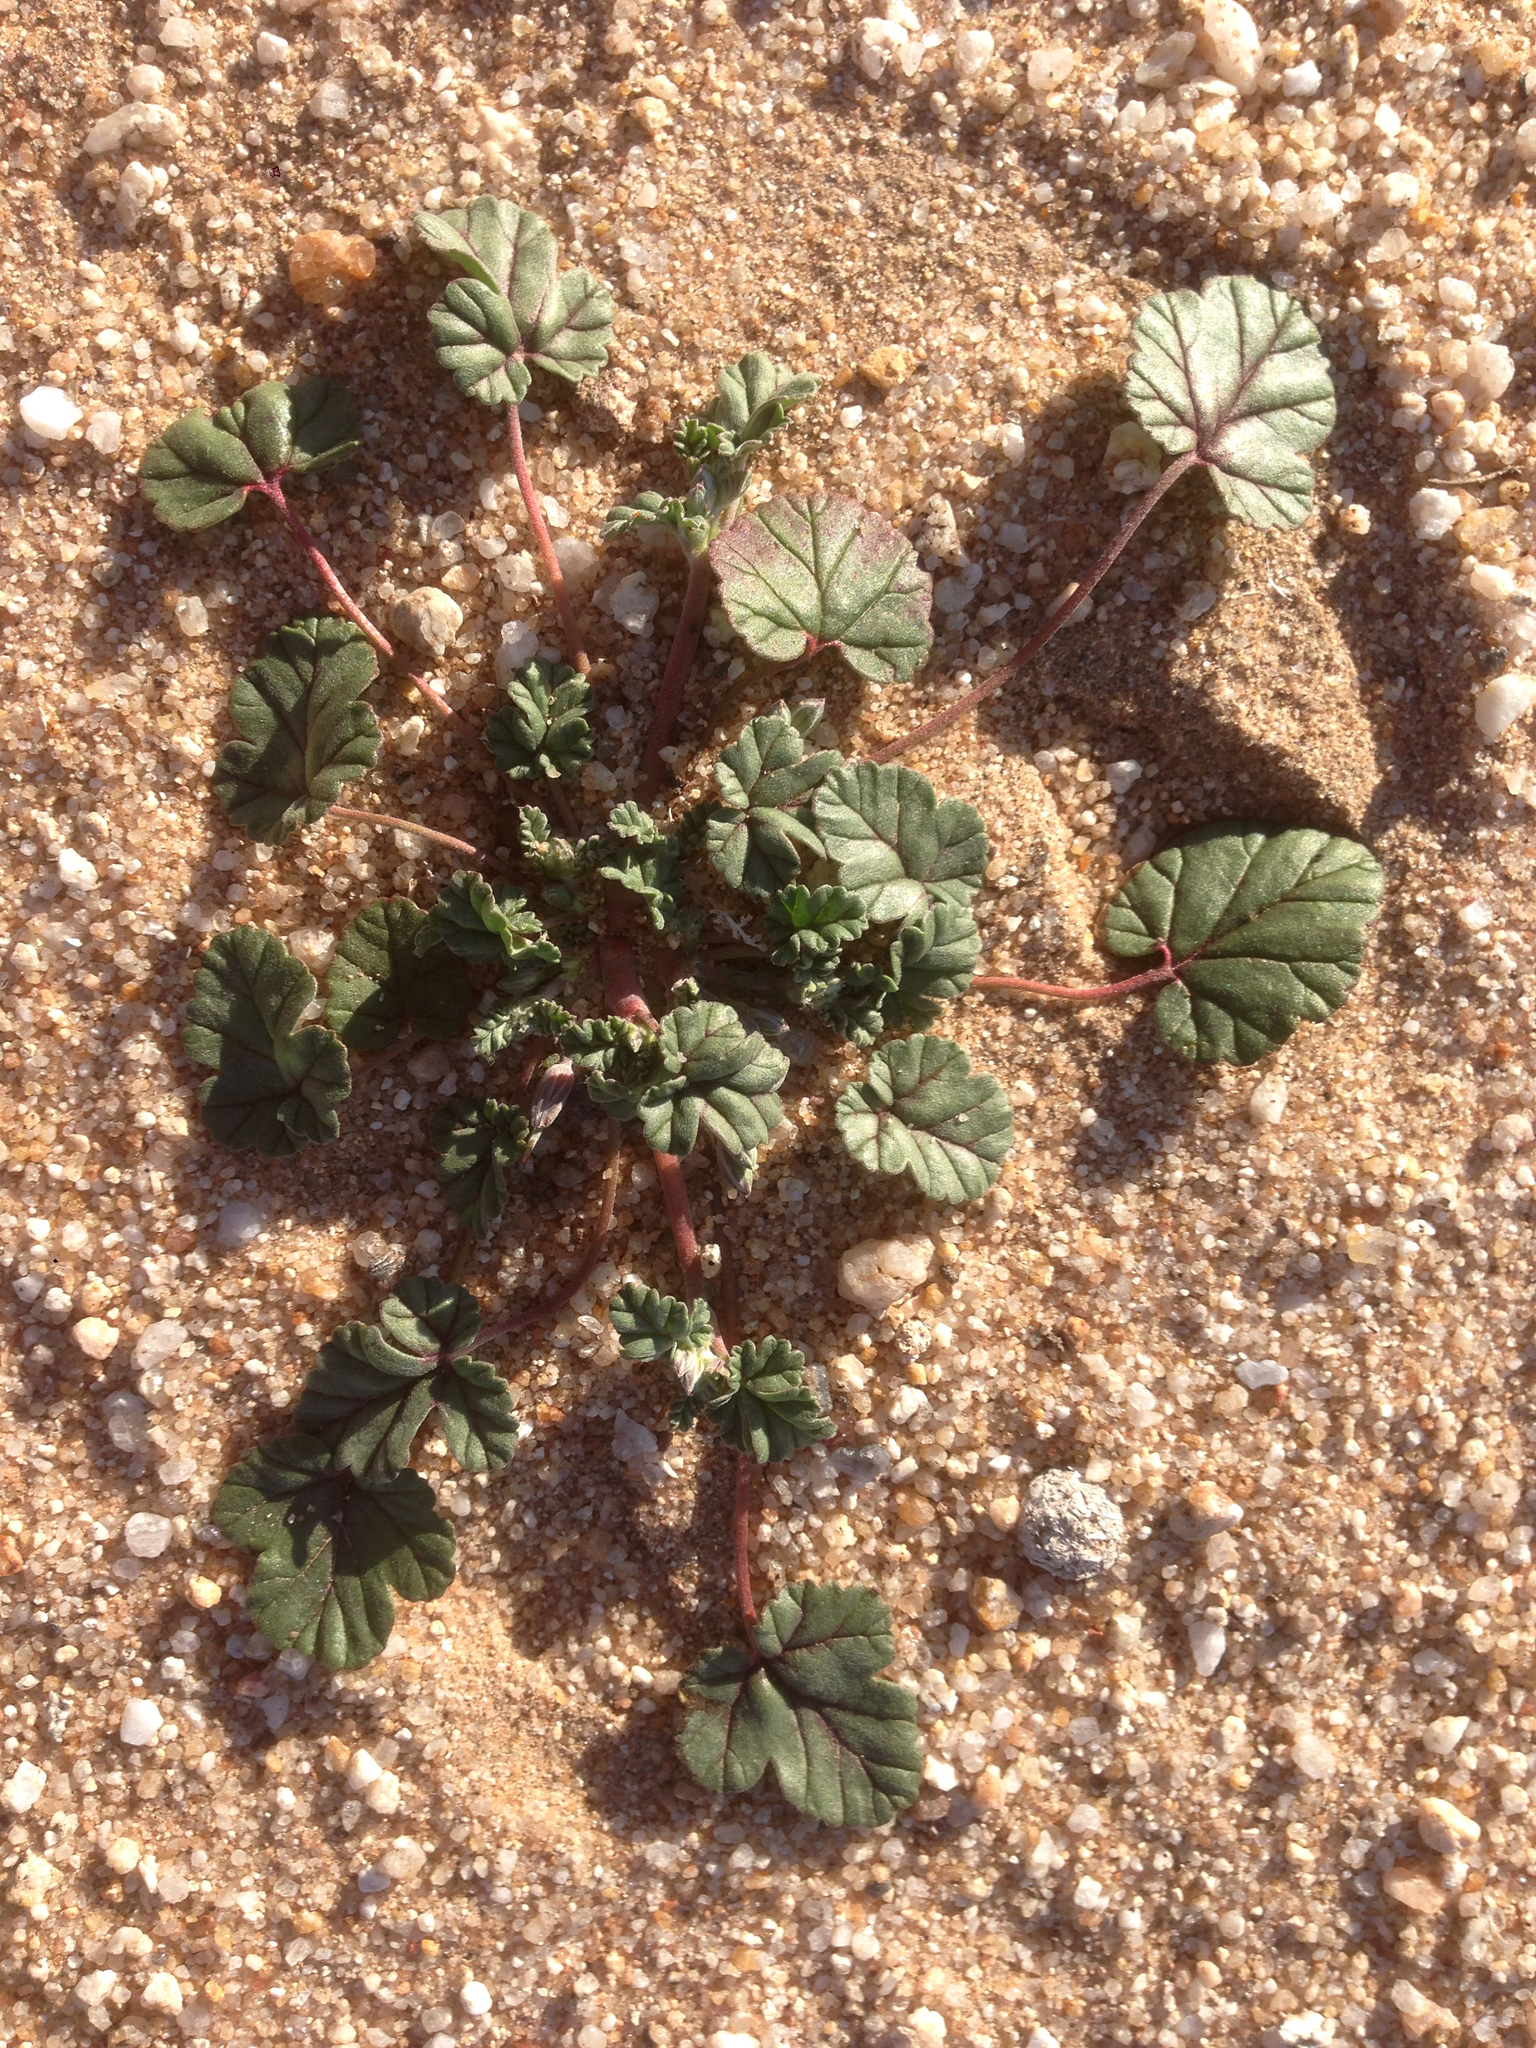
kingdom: Plantae
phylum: Tracheophyta
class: Magnoliopsida
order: Geraniales
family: Geraniaceae
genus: Erodium
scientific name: Erodium texanum
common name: Texas stork's-bill
